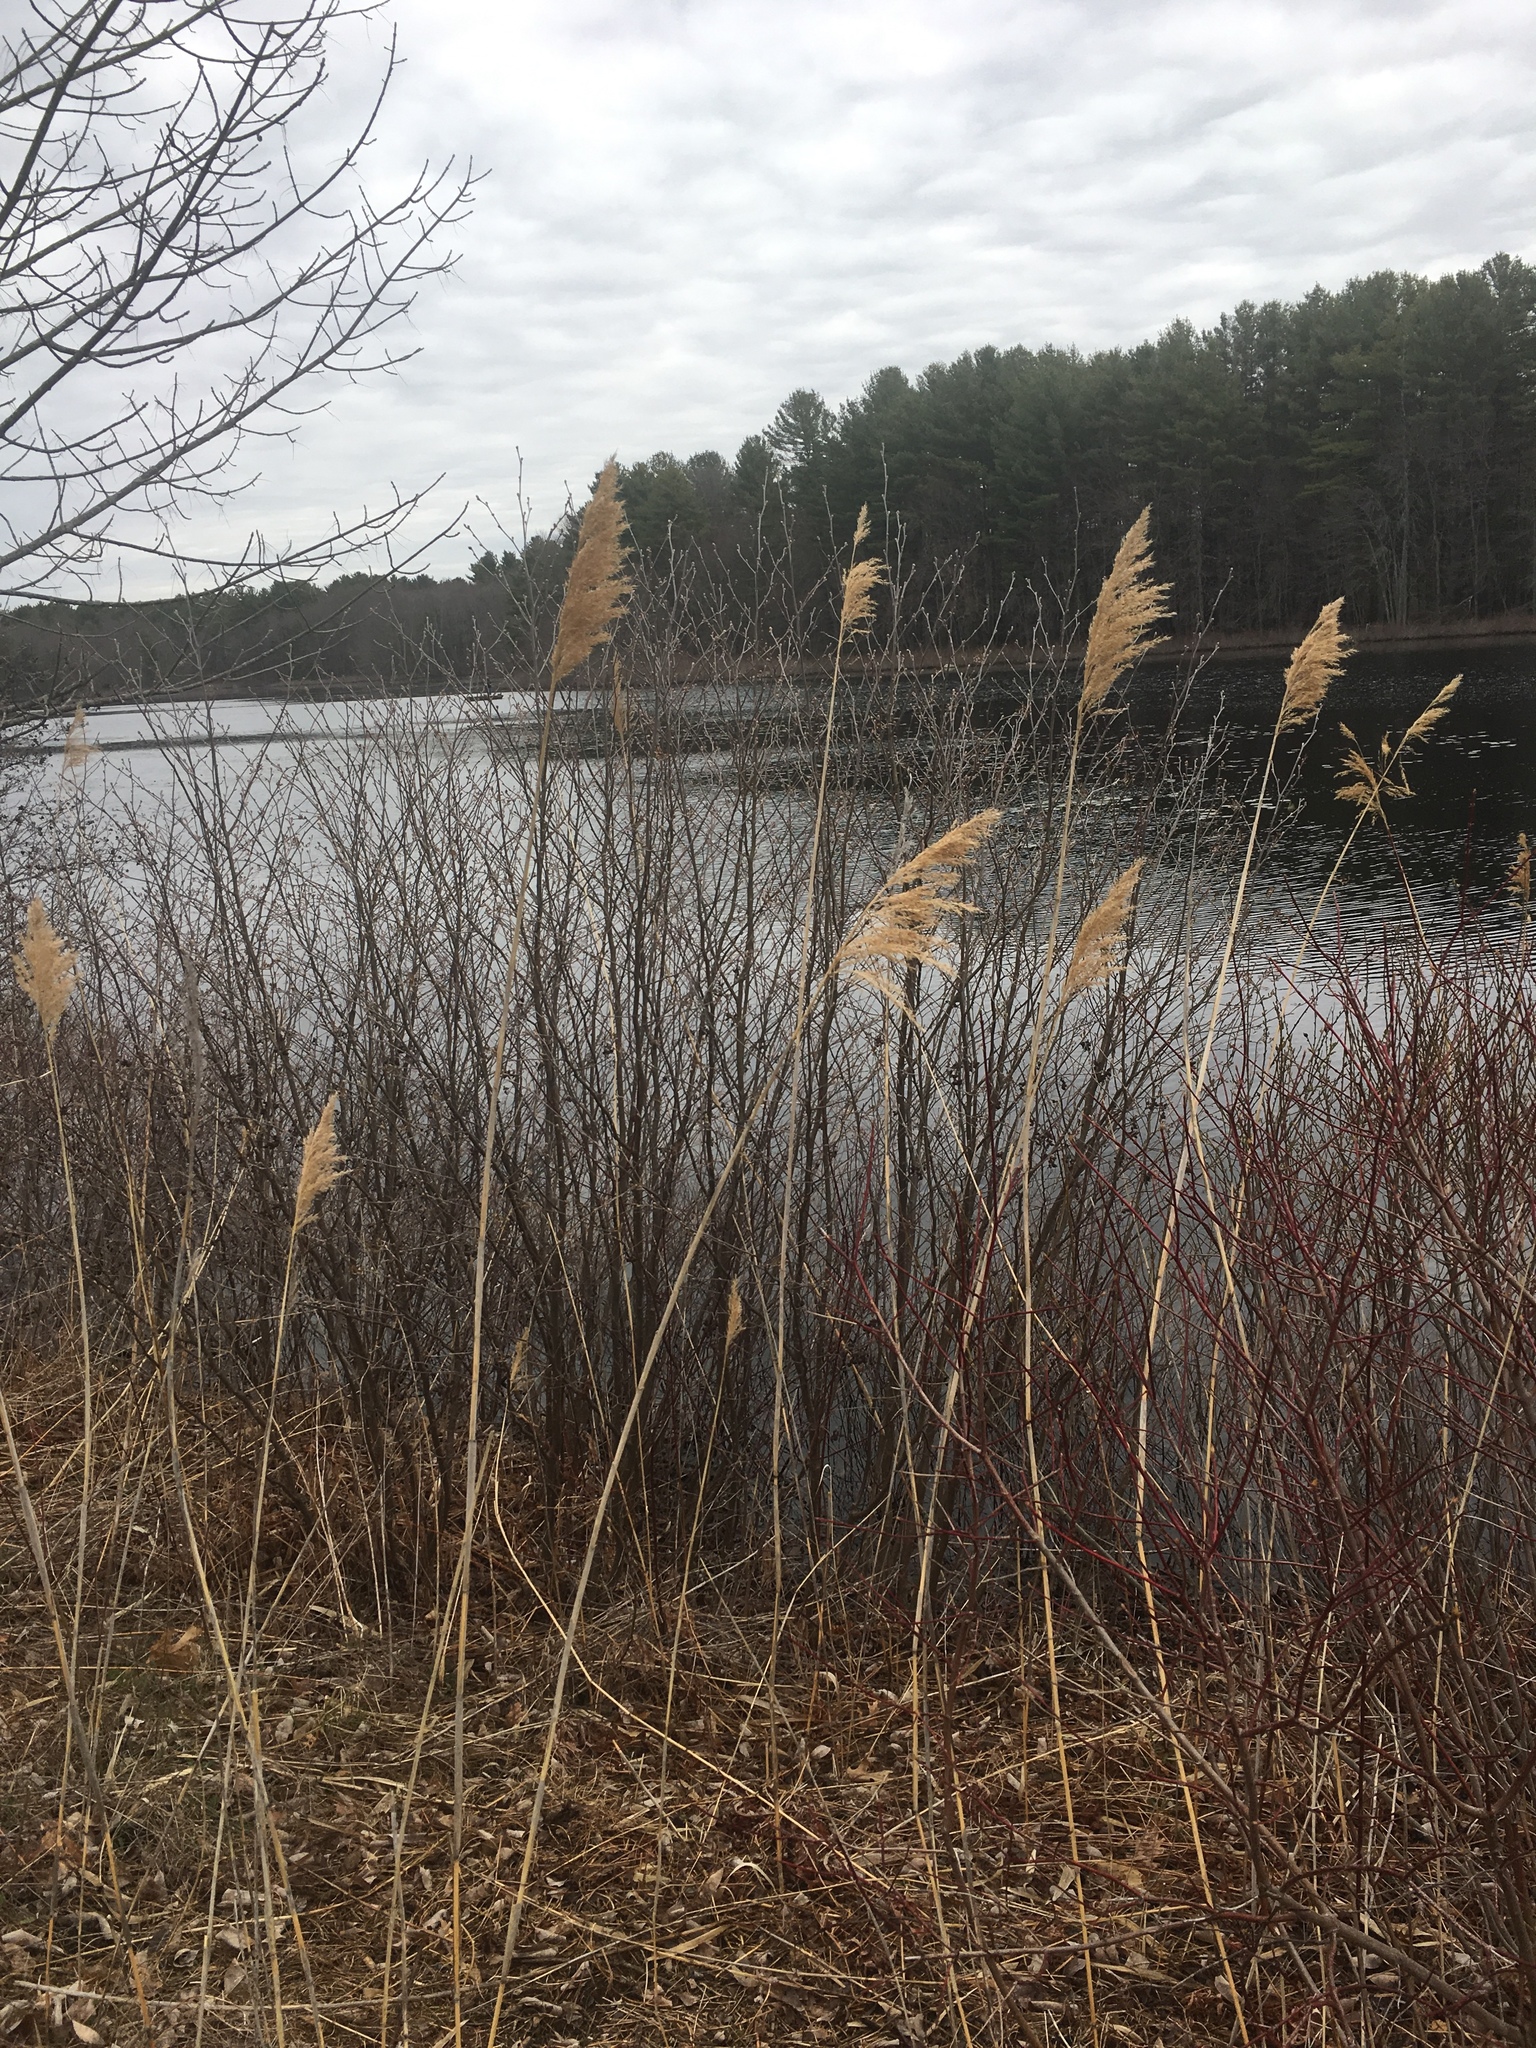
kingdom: Plantae
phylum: Tracheophyta
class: Liliopsida
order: Poales
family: Poaceae
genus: Phragmites
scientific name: Phragmites australis
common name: Common reed
